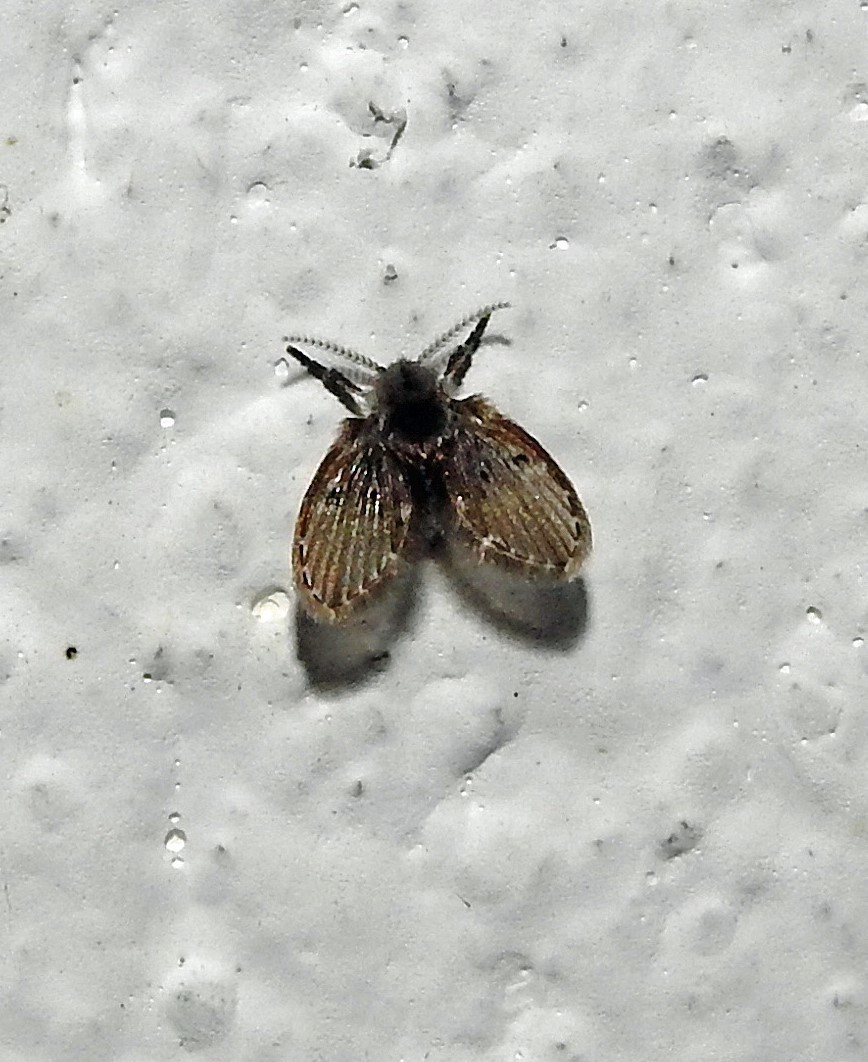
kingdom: Animalia
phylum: Arthropoda
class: Insecta
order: Diptera
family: Psychodidae
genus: Clogmia
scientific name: Clogmia albipunctatus
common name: White-spotted moth fly
